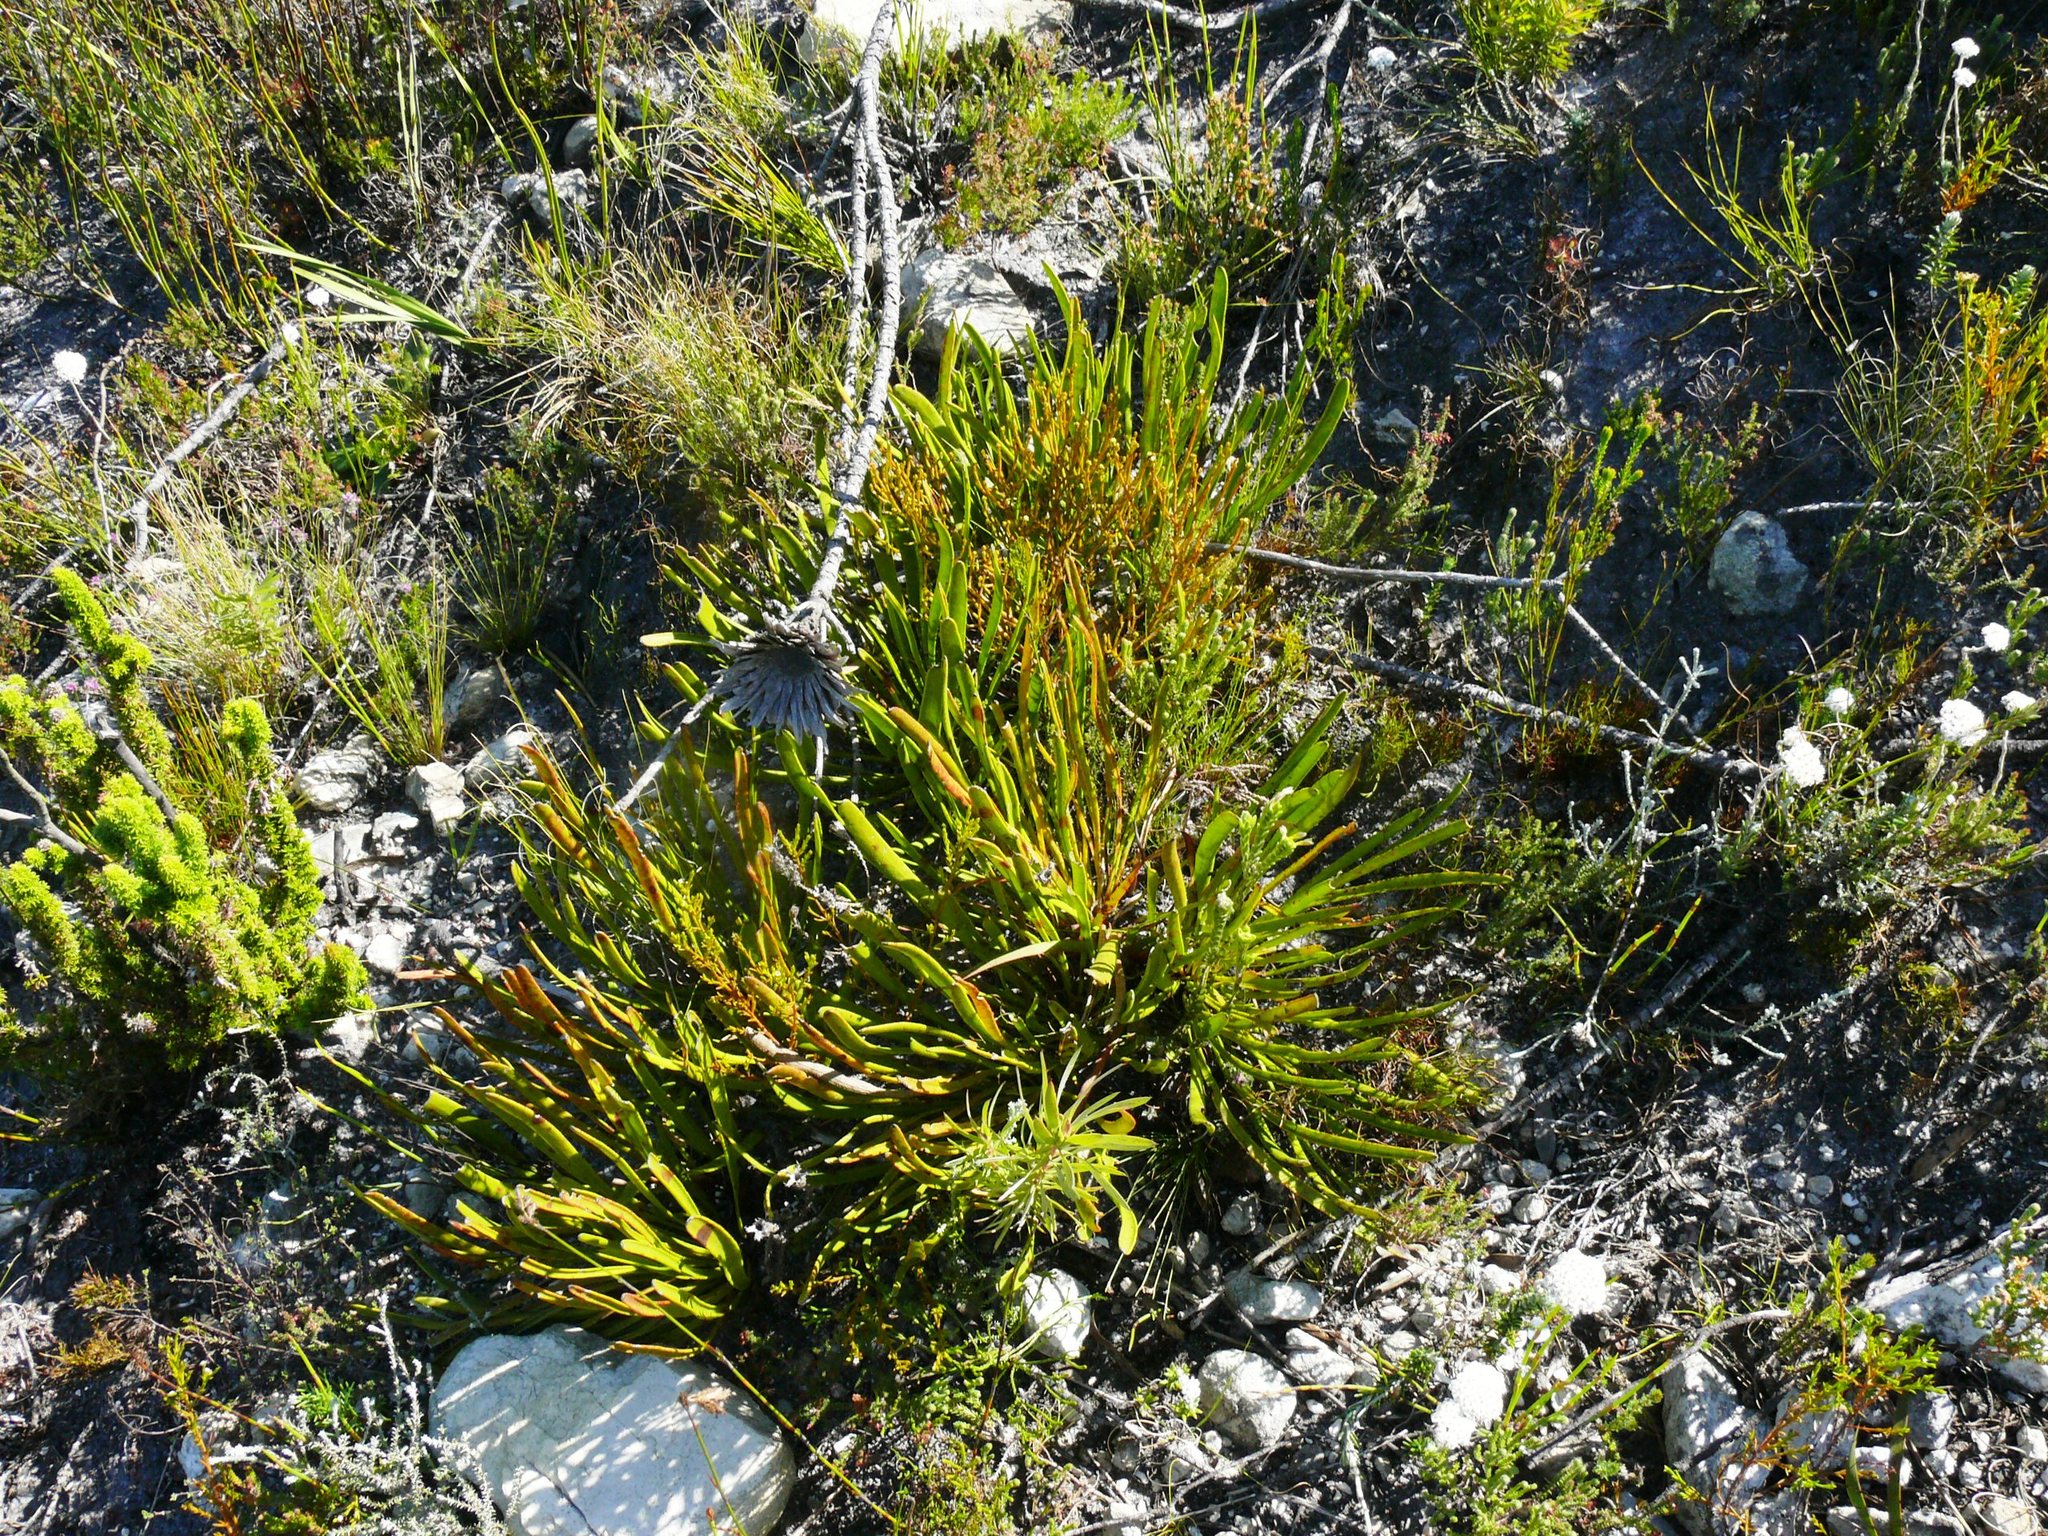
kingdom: Plantae
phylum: Tracheophyta
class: Magnoliopsida
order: Proteales
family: Proteaceae
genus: Protea
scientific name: Protea scabra
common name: Sandpaper-leaf sugarbush
